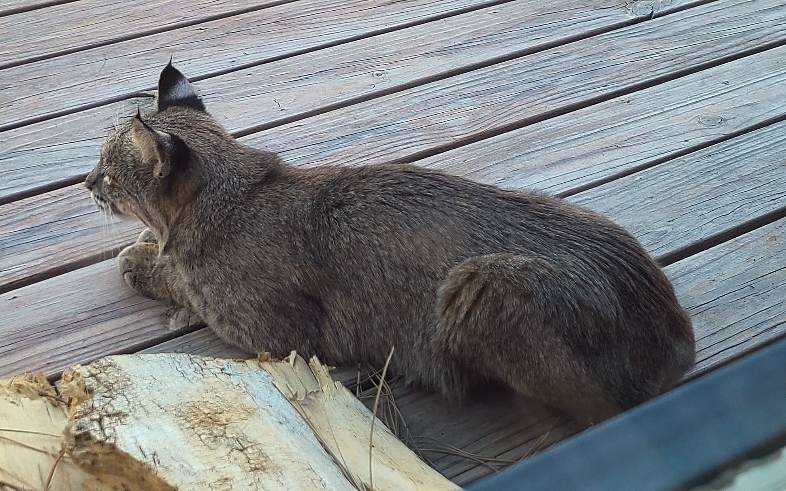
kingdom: Animalia
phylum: Chordata
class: Mammalia
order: Carnivora
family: Felidae
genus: Lynx
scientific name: Lynx rufus
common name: Bobcat
